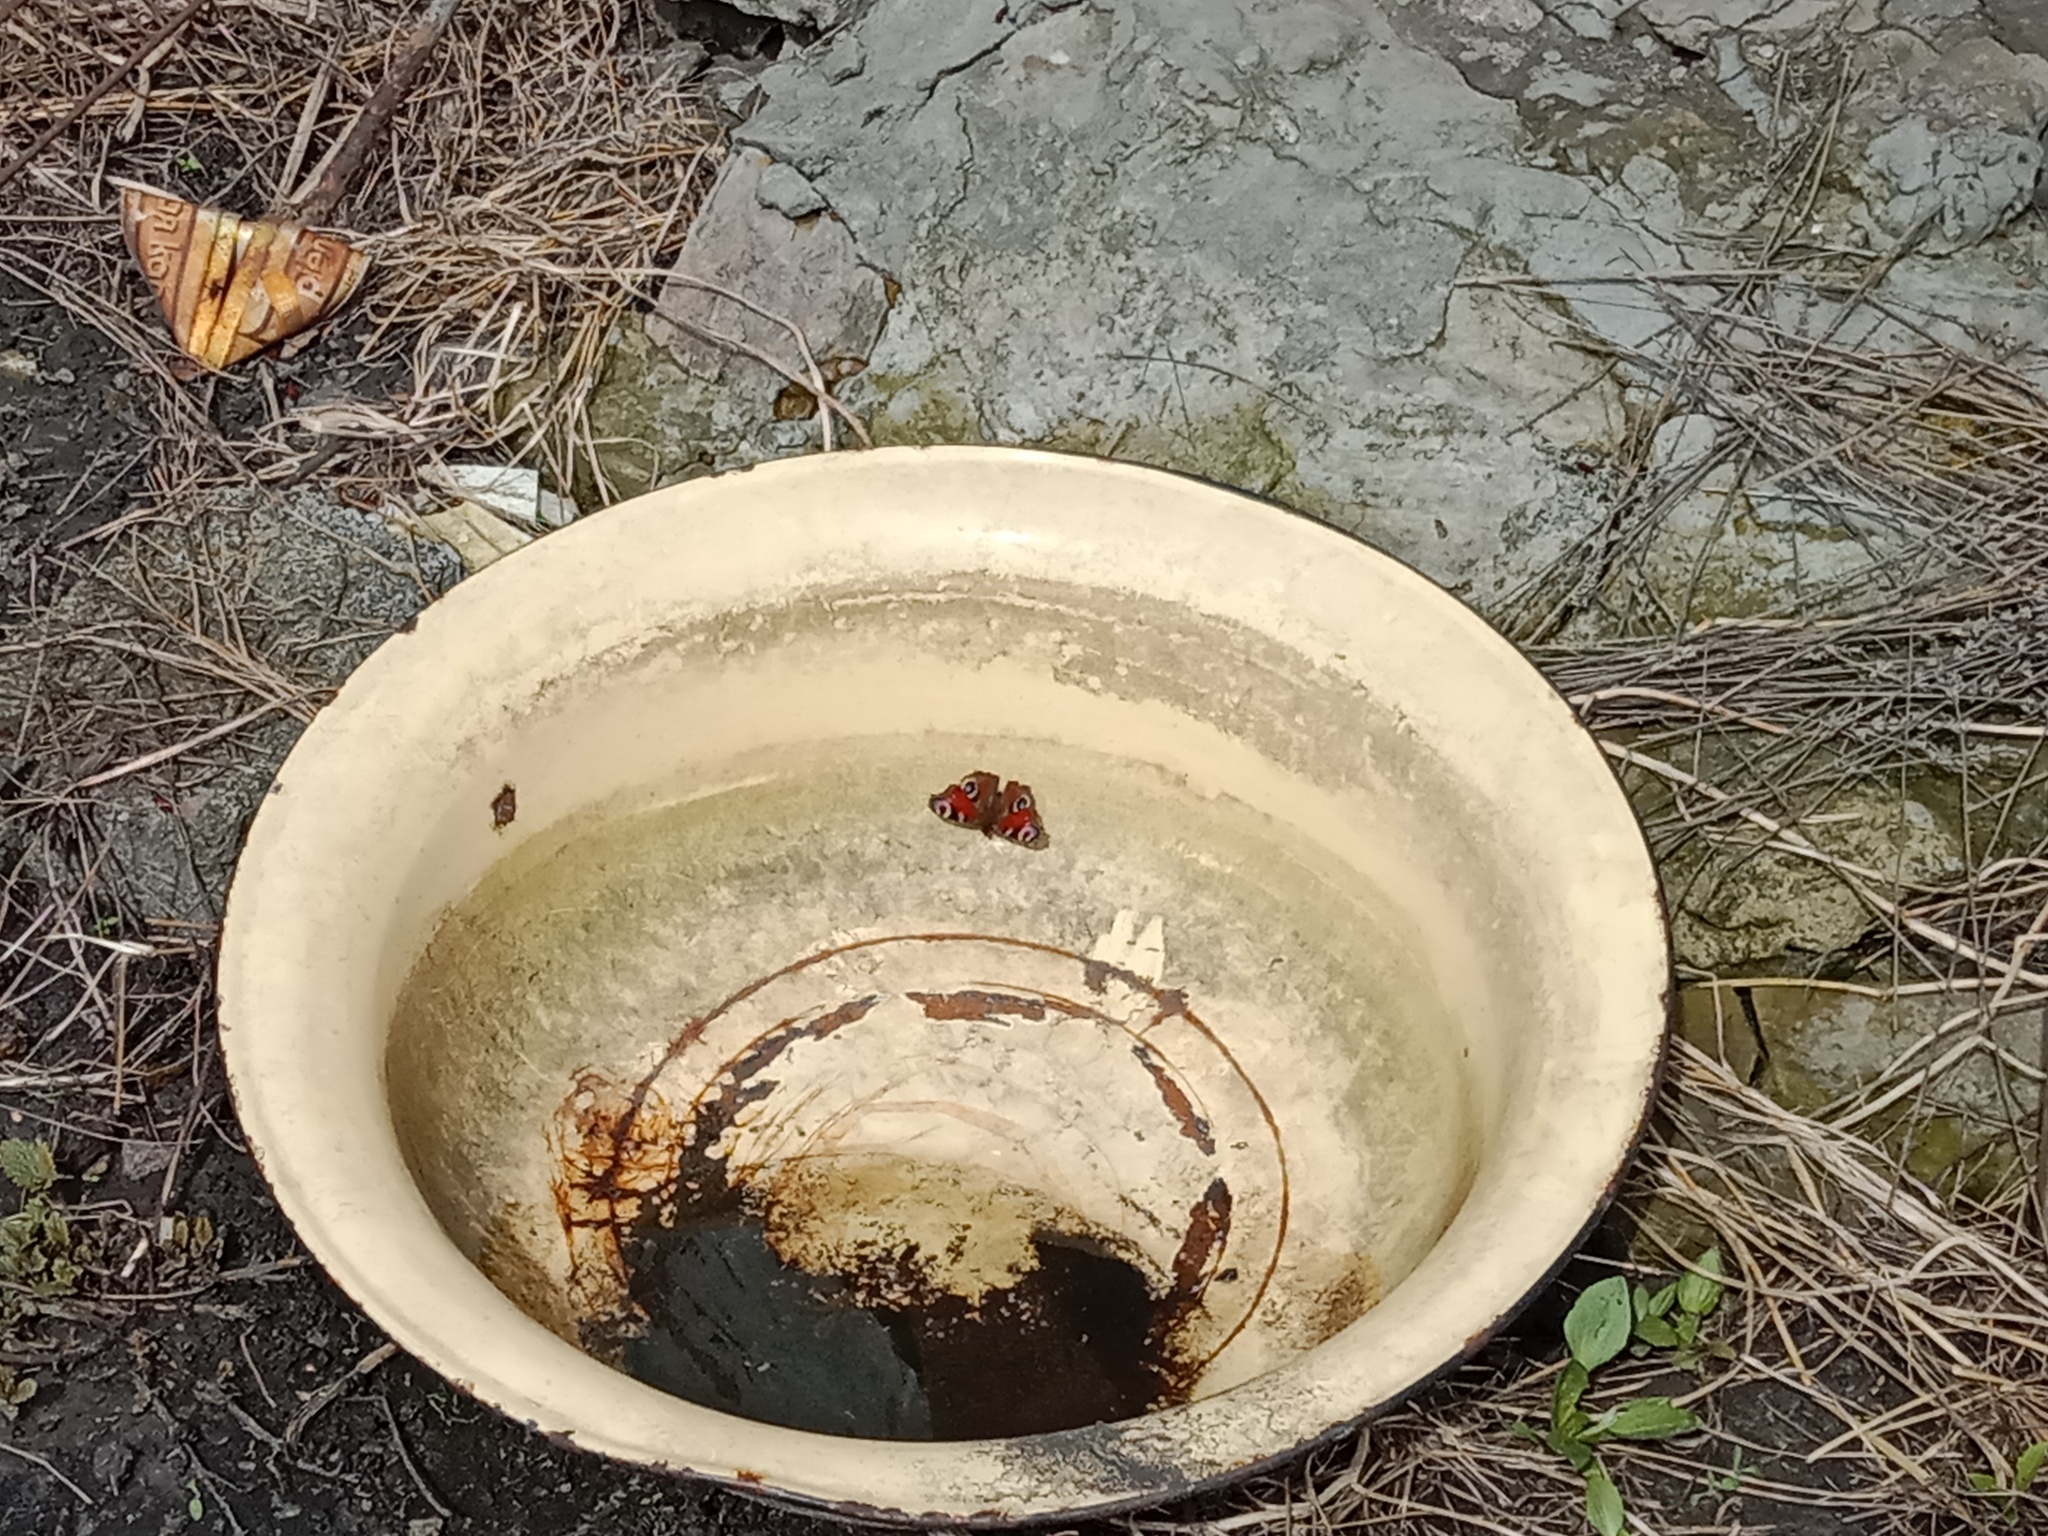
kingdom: Animalia
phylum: Arthropoda
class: Insecta
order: Lepidoptera
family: Nymphalidae
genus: Aglais
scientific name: Aglais io
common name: Peacock
